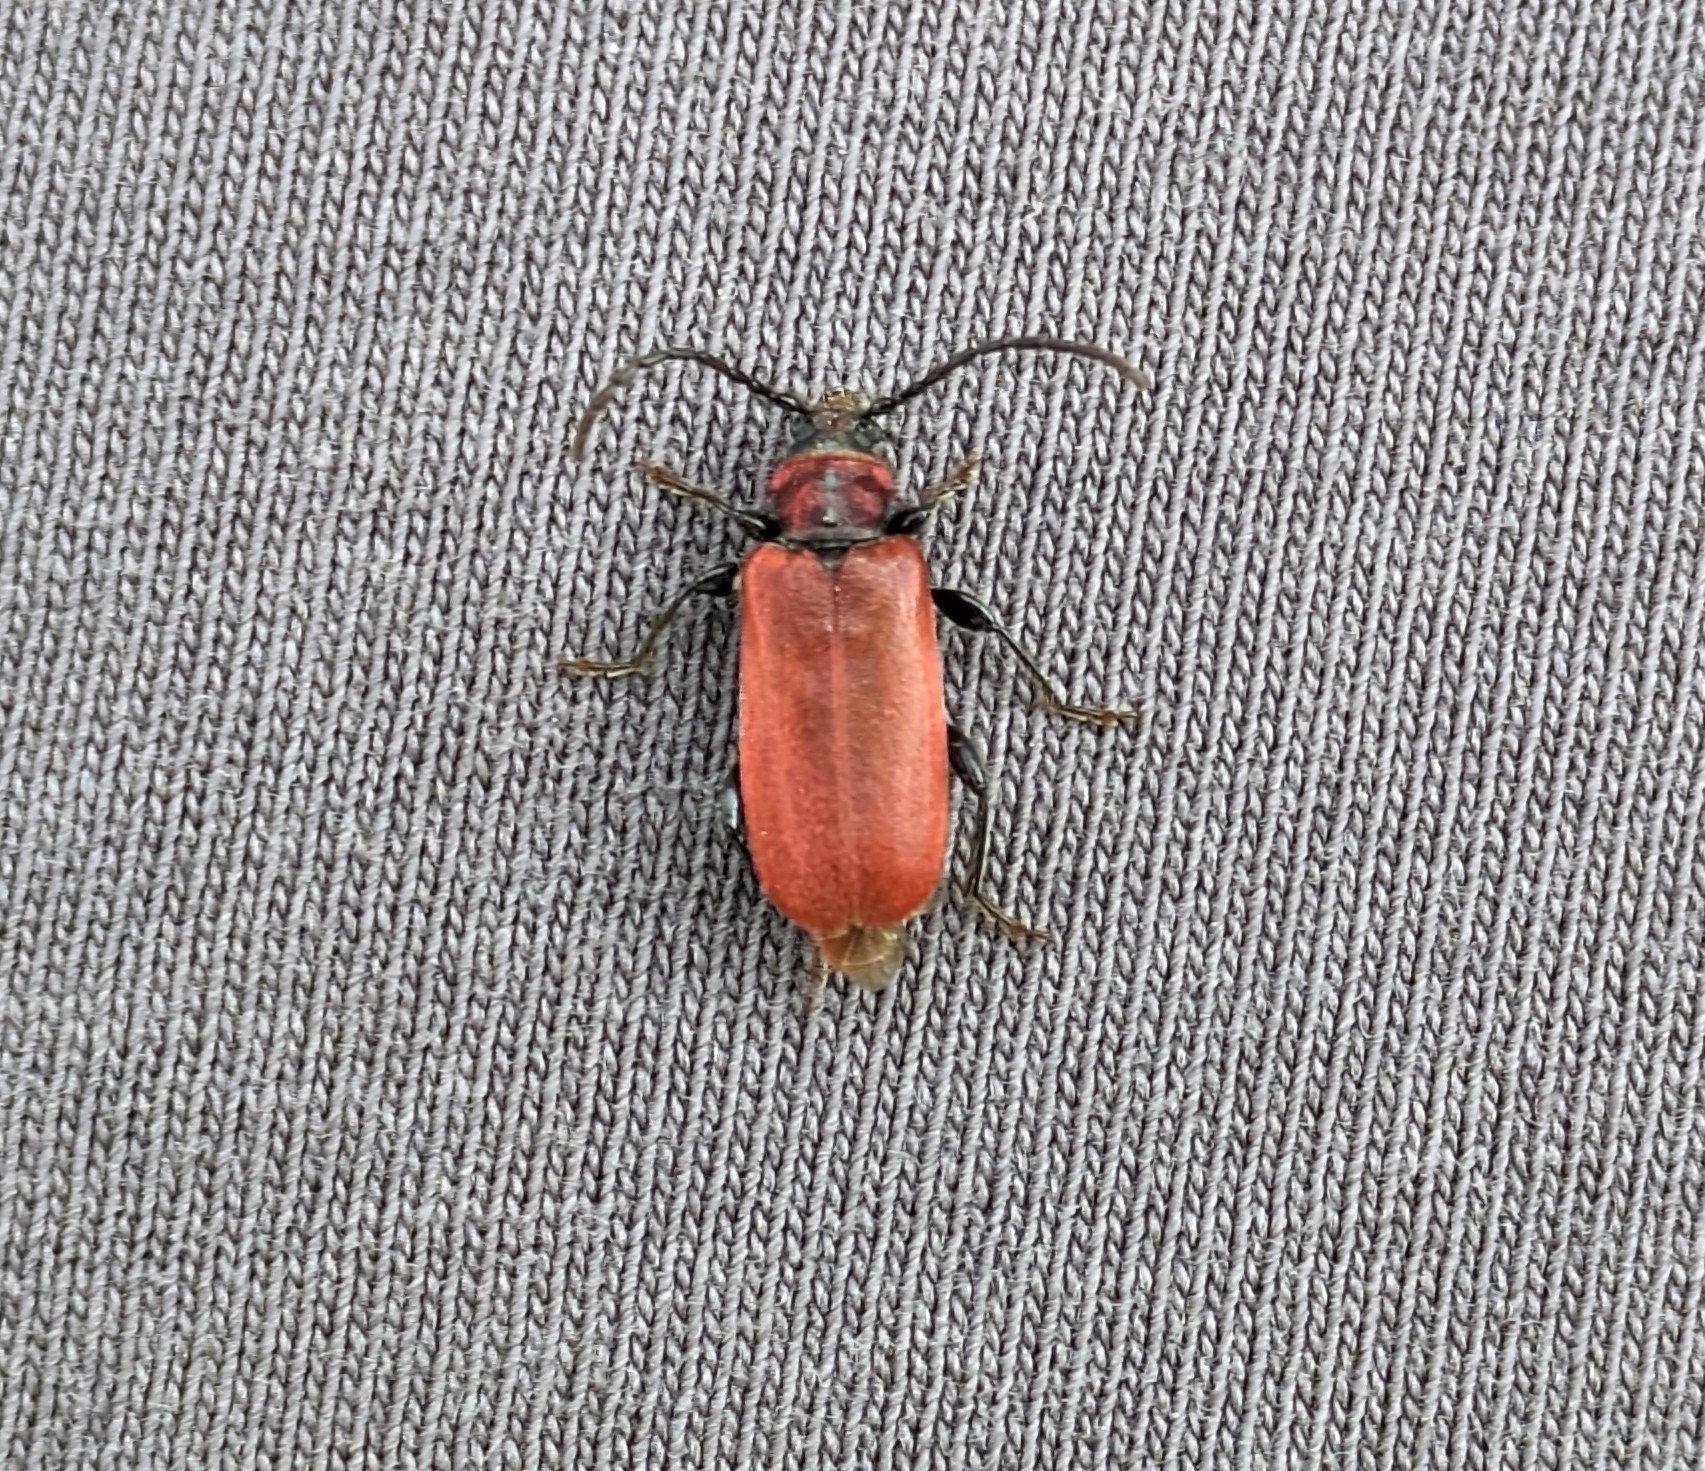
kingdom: Animalia
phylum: Arthropoda
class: Insecta
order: Coleoptera
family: Cerambycidae
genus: Pyrrhidium
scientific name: Pyrrhidium sanguineum
